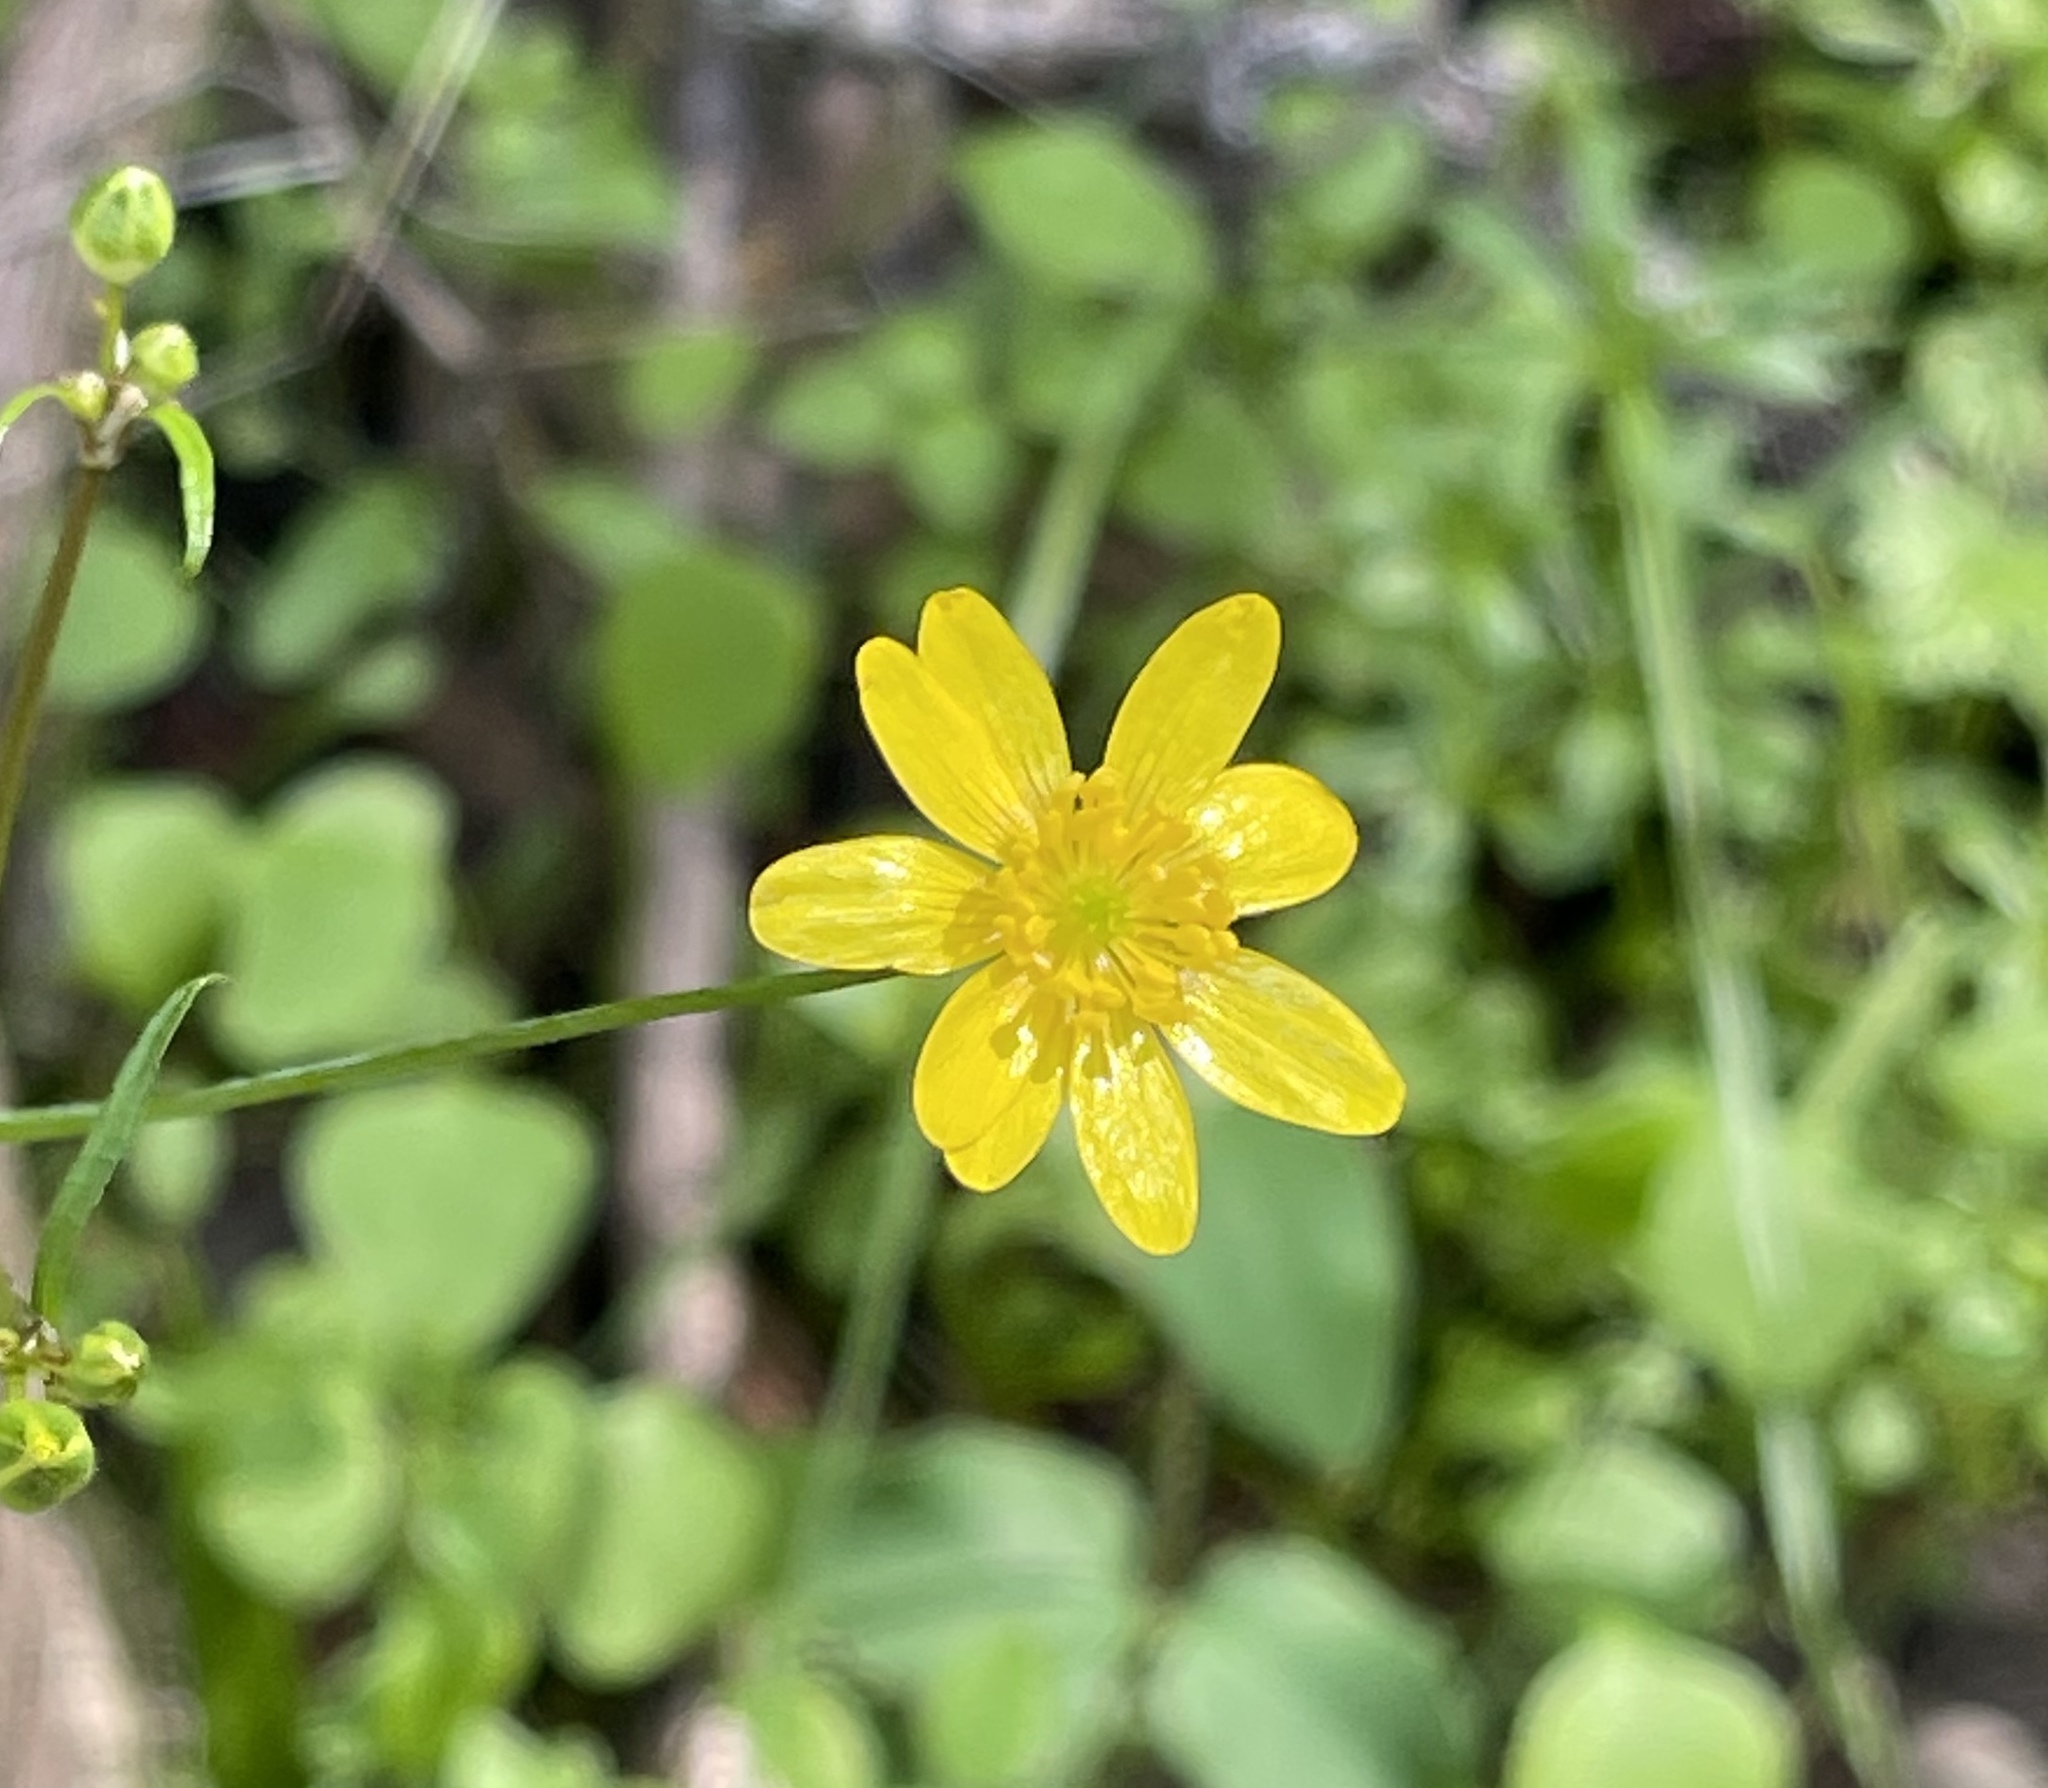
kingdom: Plantae
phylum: Tracheophyta
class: Magnoliopsida
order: Ranunculales
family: Ranunculaceae
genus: Ranunculus
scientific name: Ranunculus californicus
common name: California buttercup
